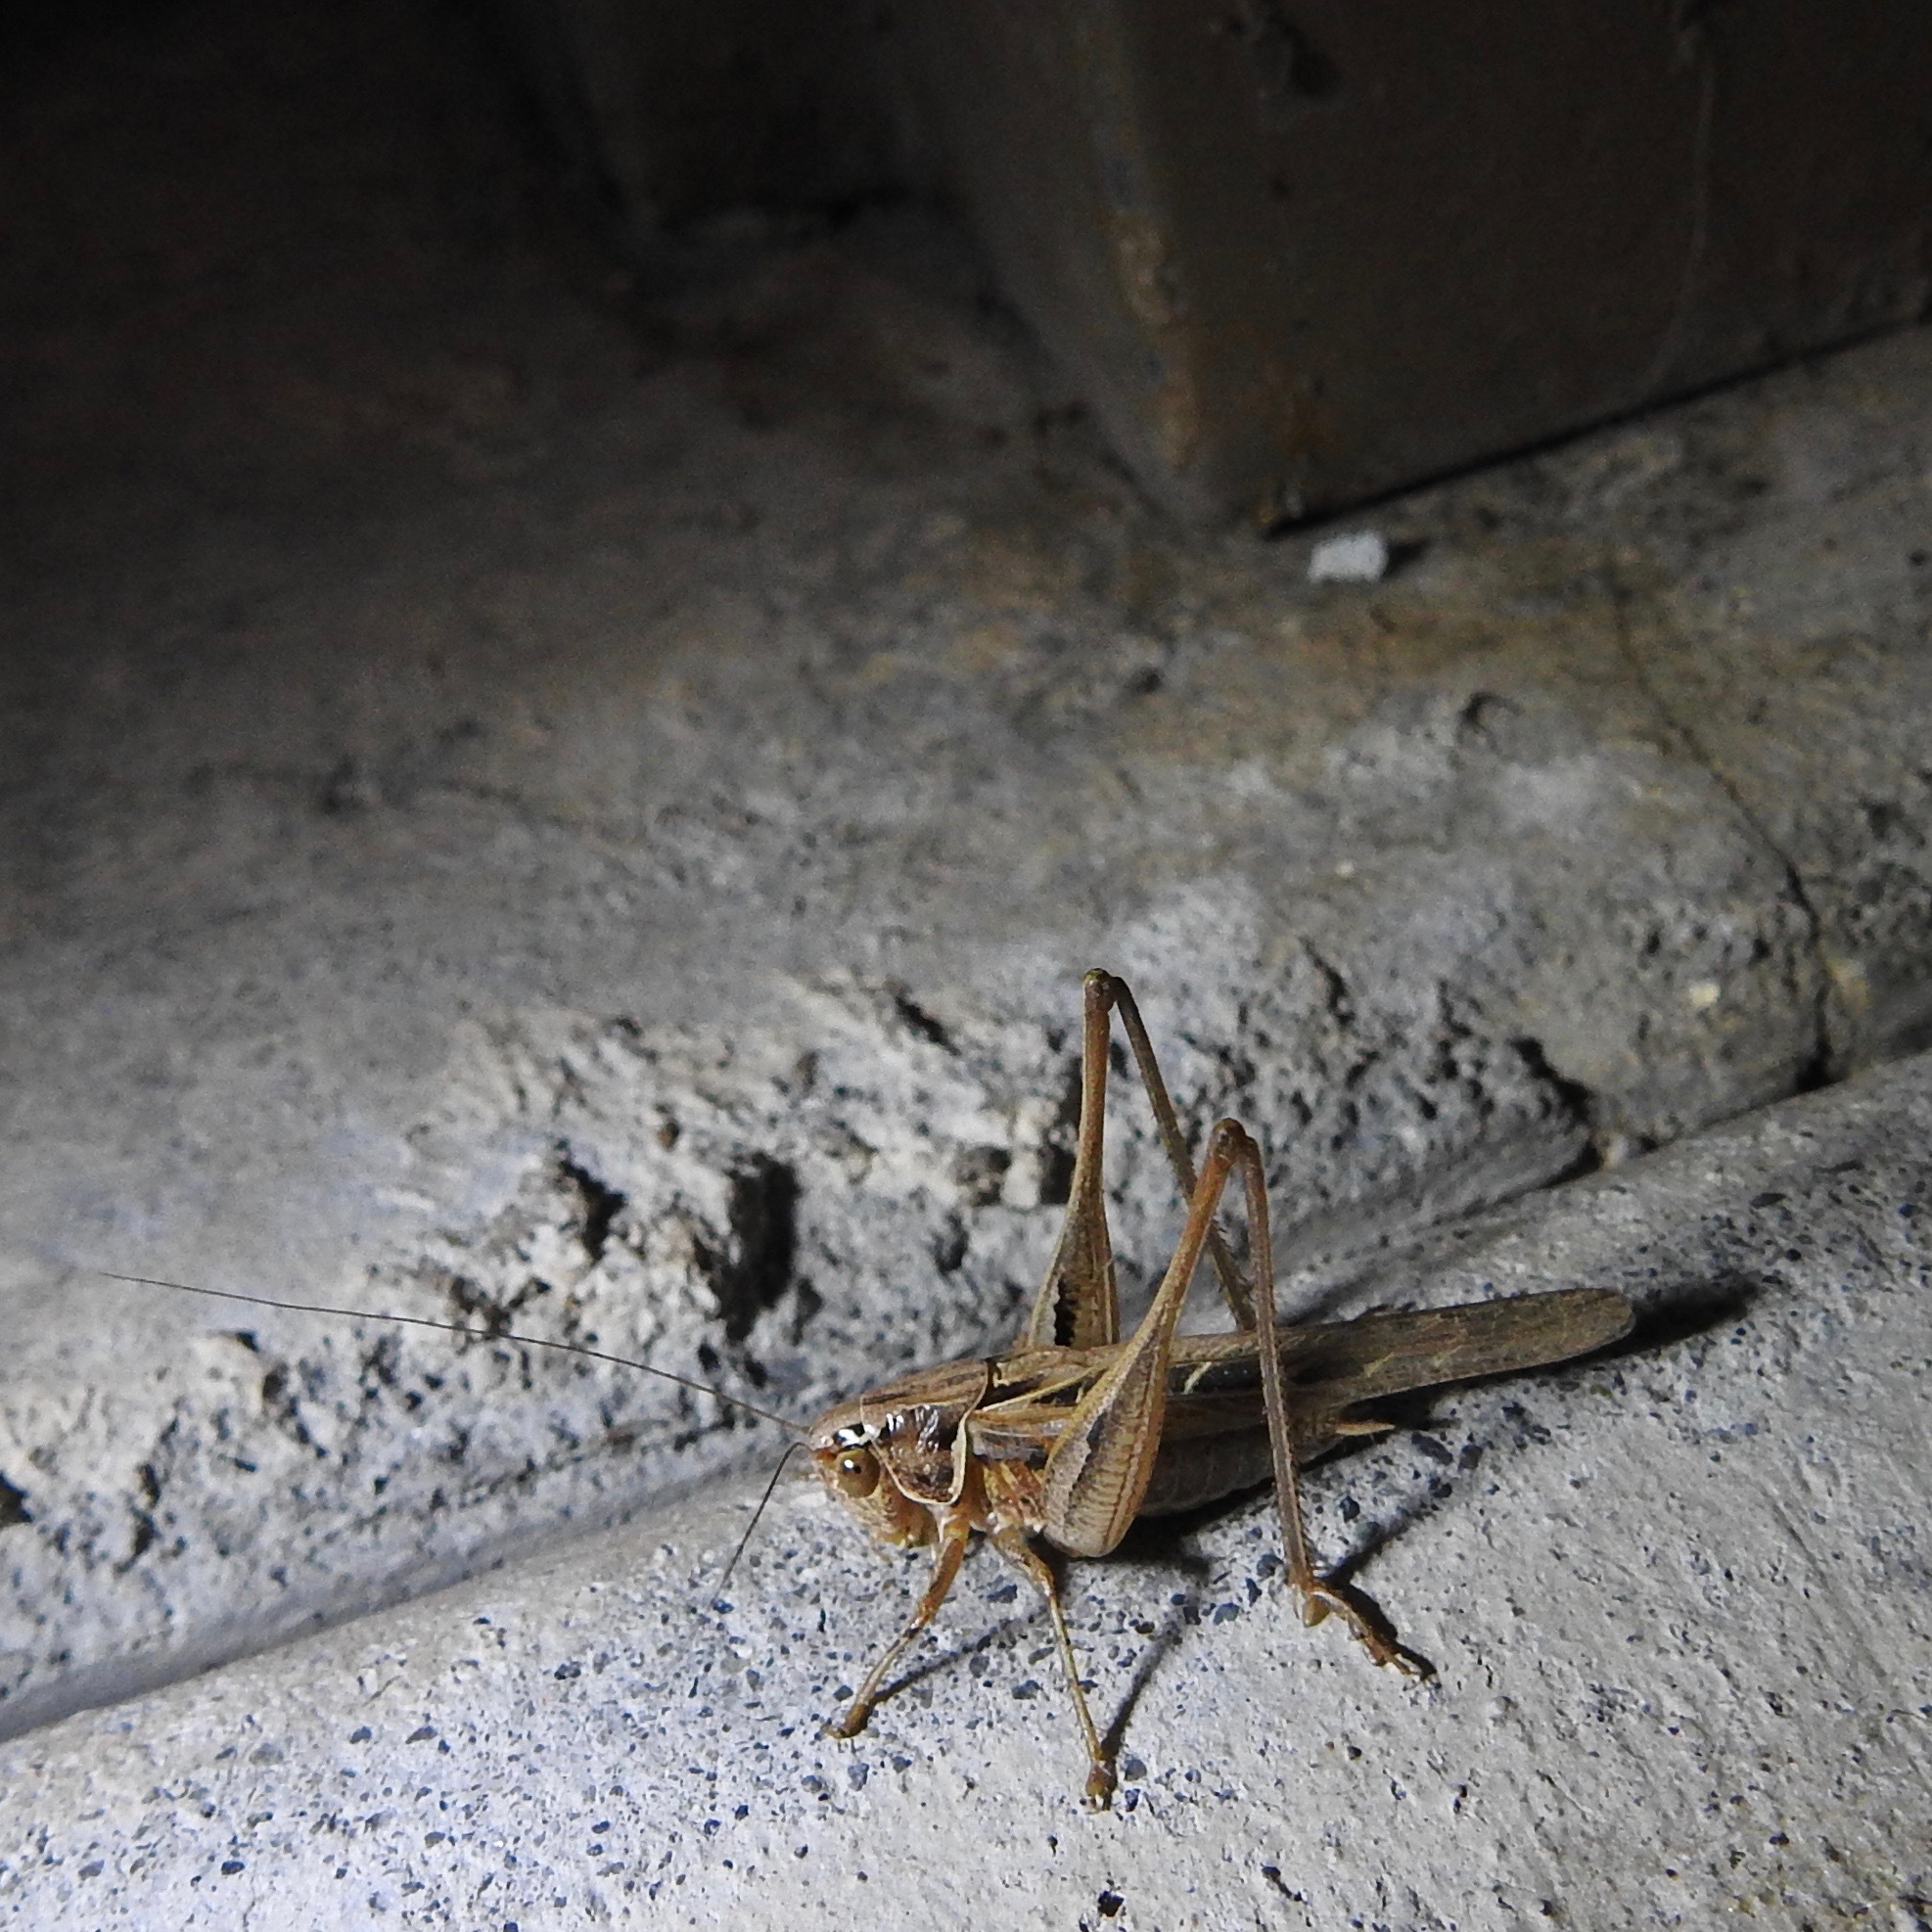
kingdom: Animalia
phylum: Arthropoda
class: Insecta
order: Orthoptera
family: Tettigoniidae
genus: Tessellana
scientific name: Tessellana tessellata
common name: Grasshopper
